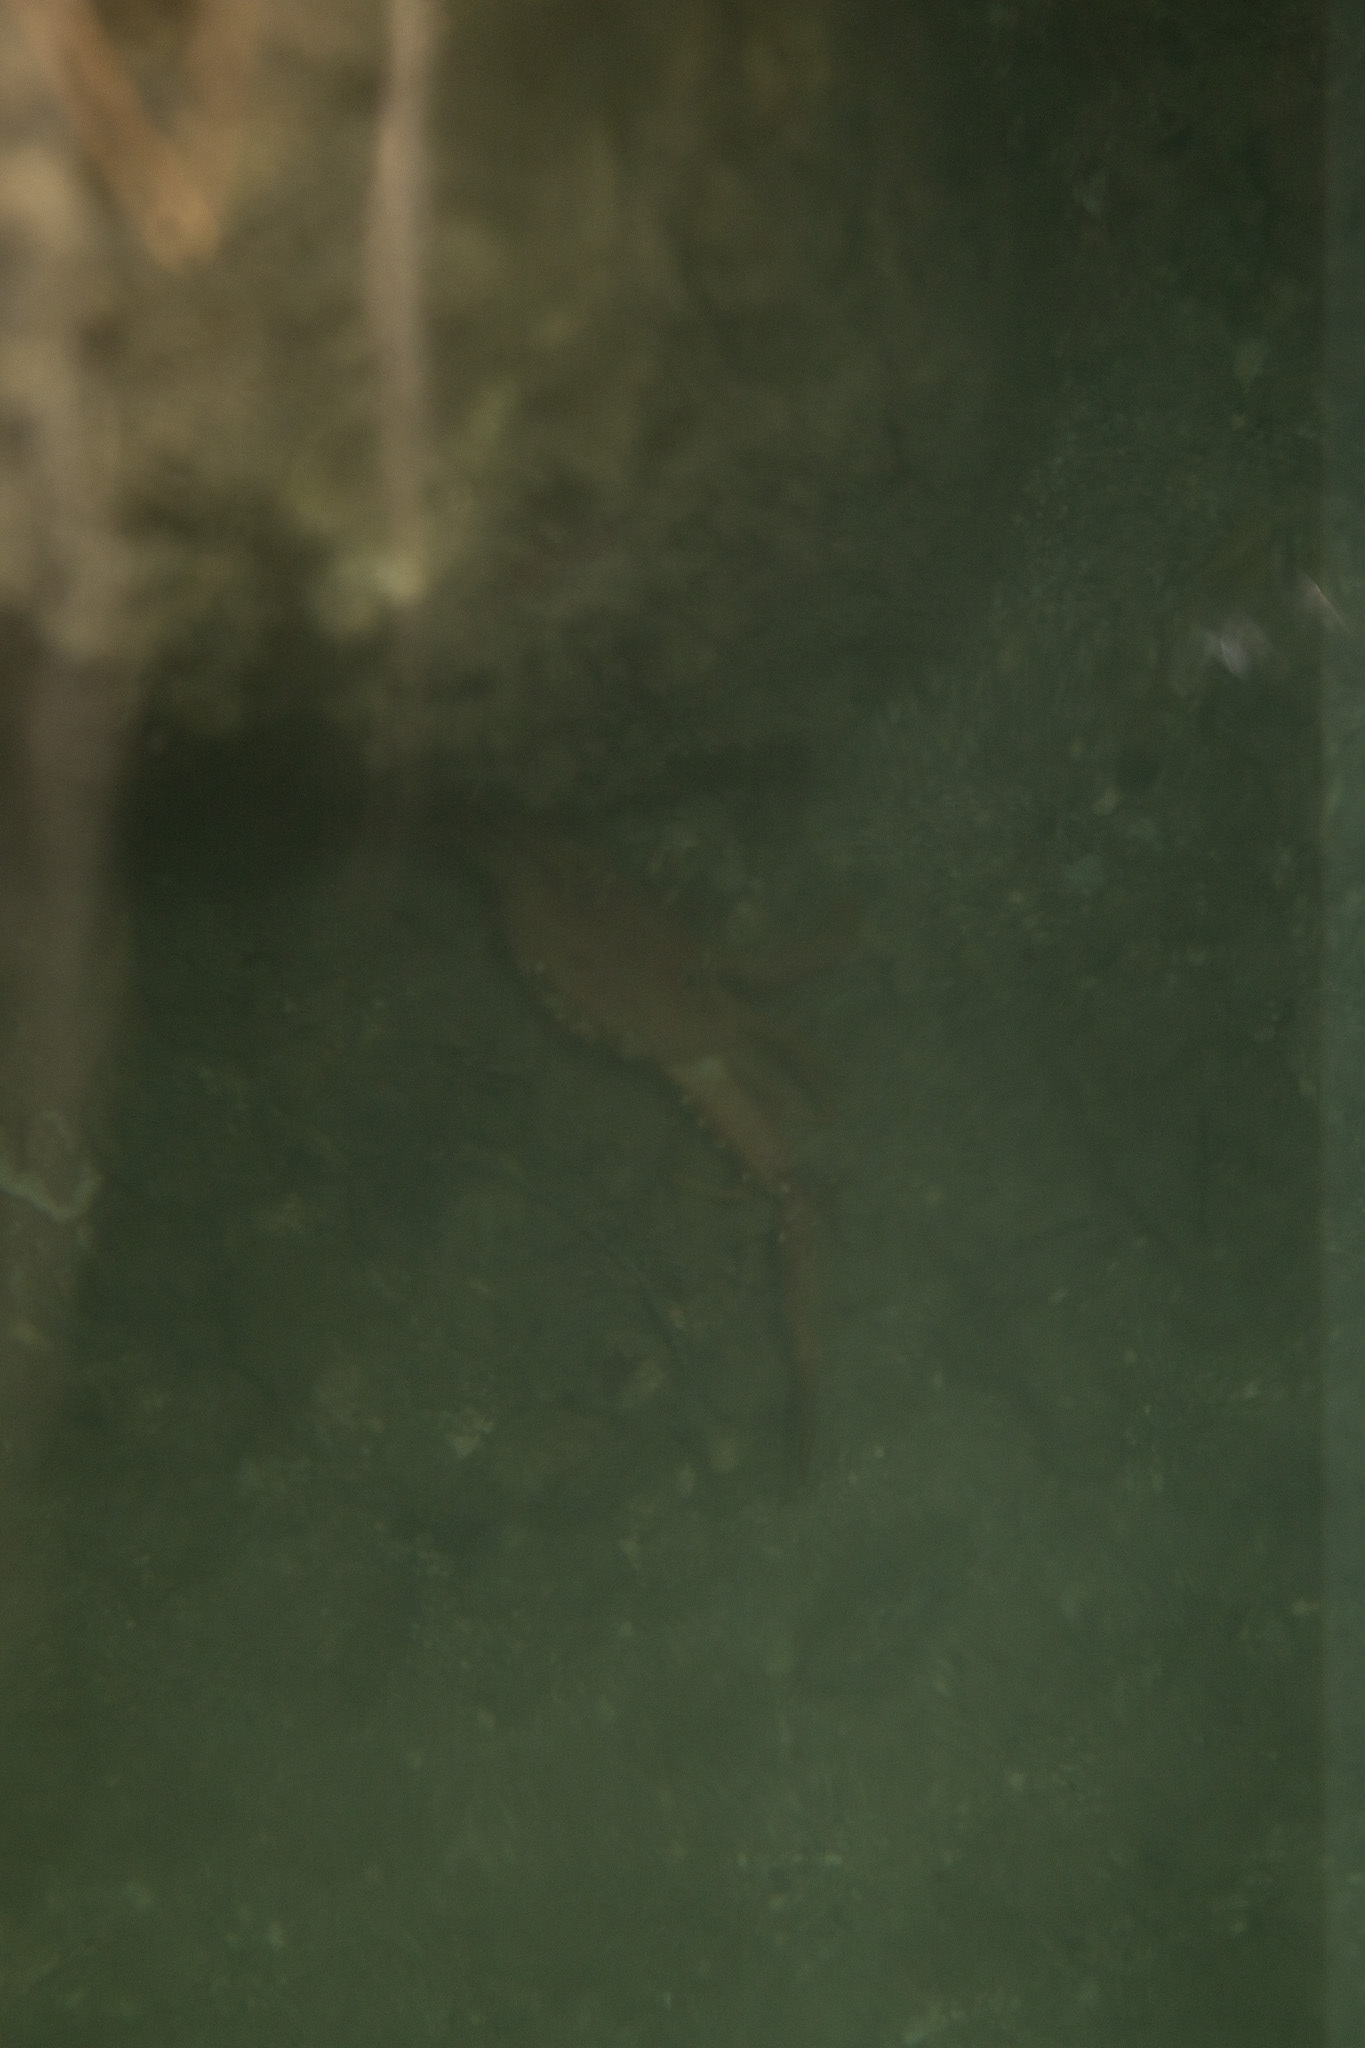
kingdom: Animalia
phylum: Arthropoda
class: Malacostraca
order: Decapoda
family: Portunidae
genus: Achelous
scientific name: Achelous sebae
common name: Ocellate swimming crab
